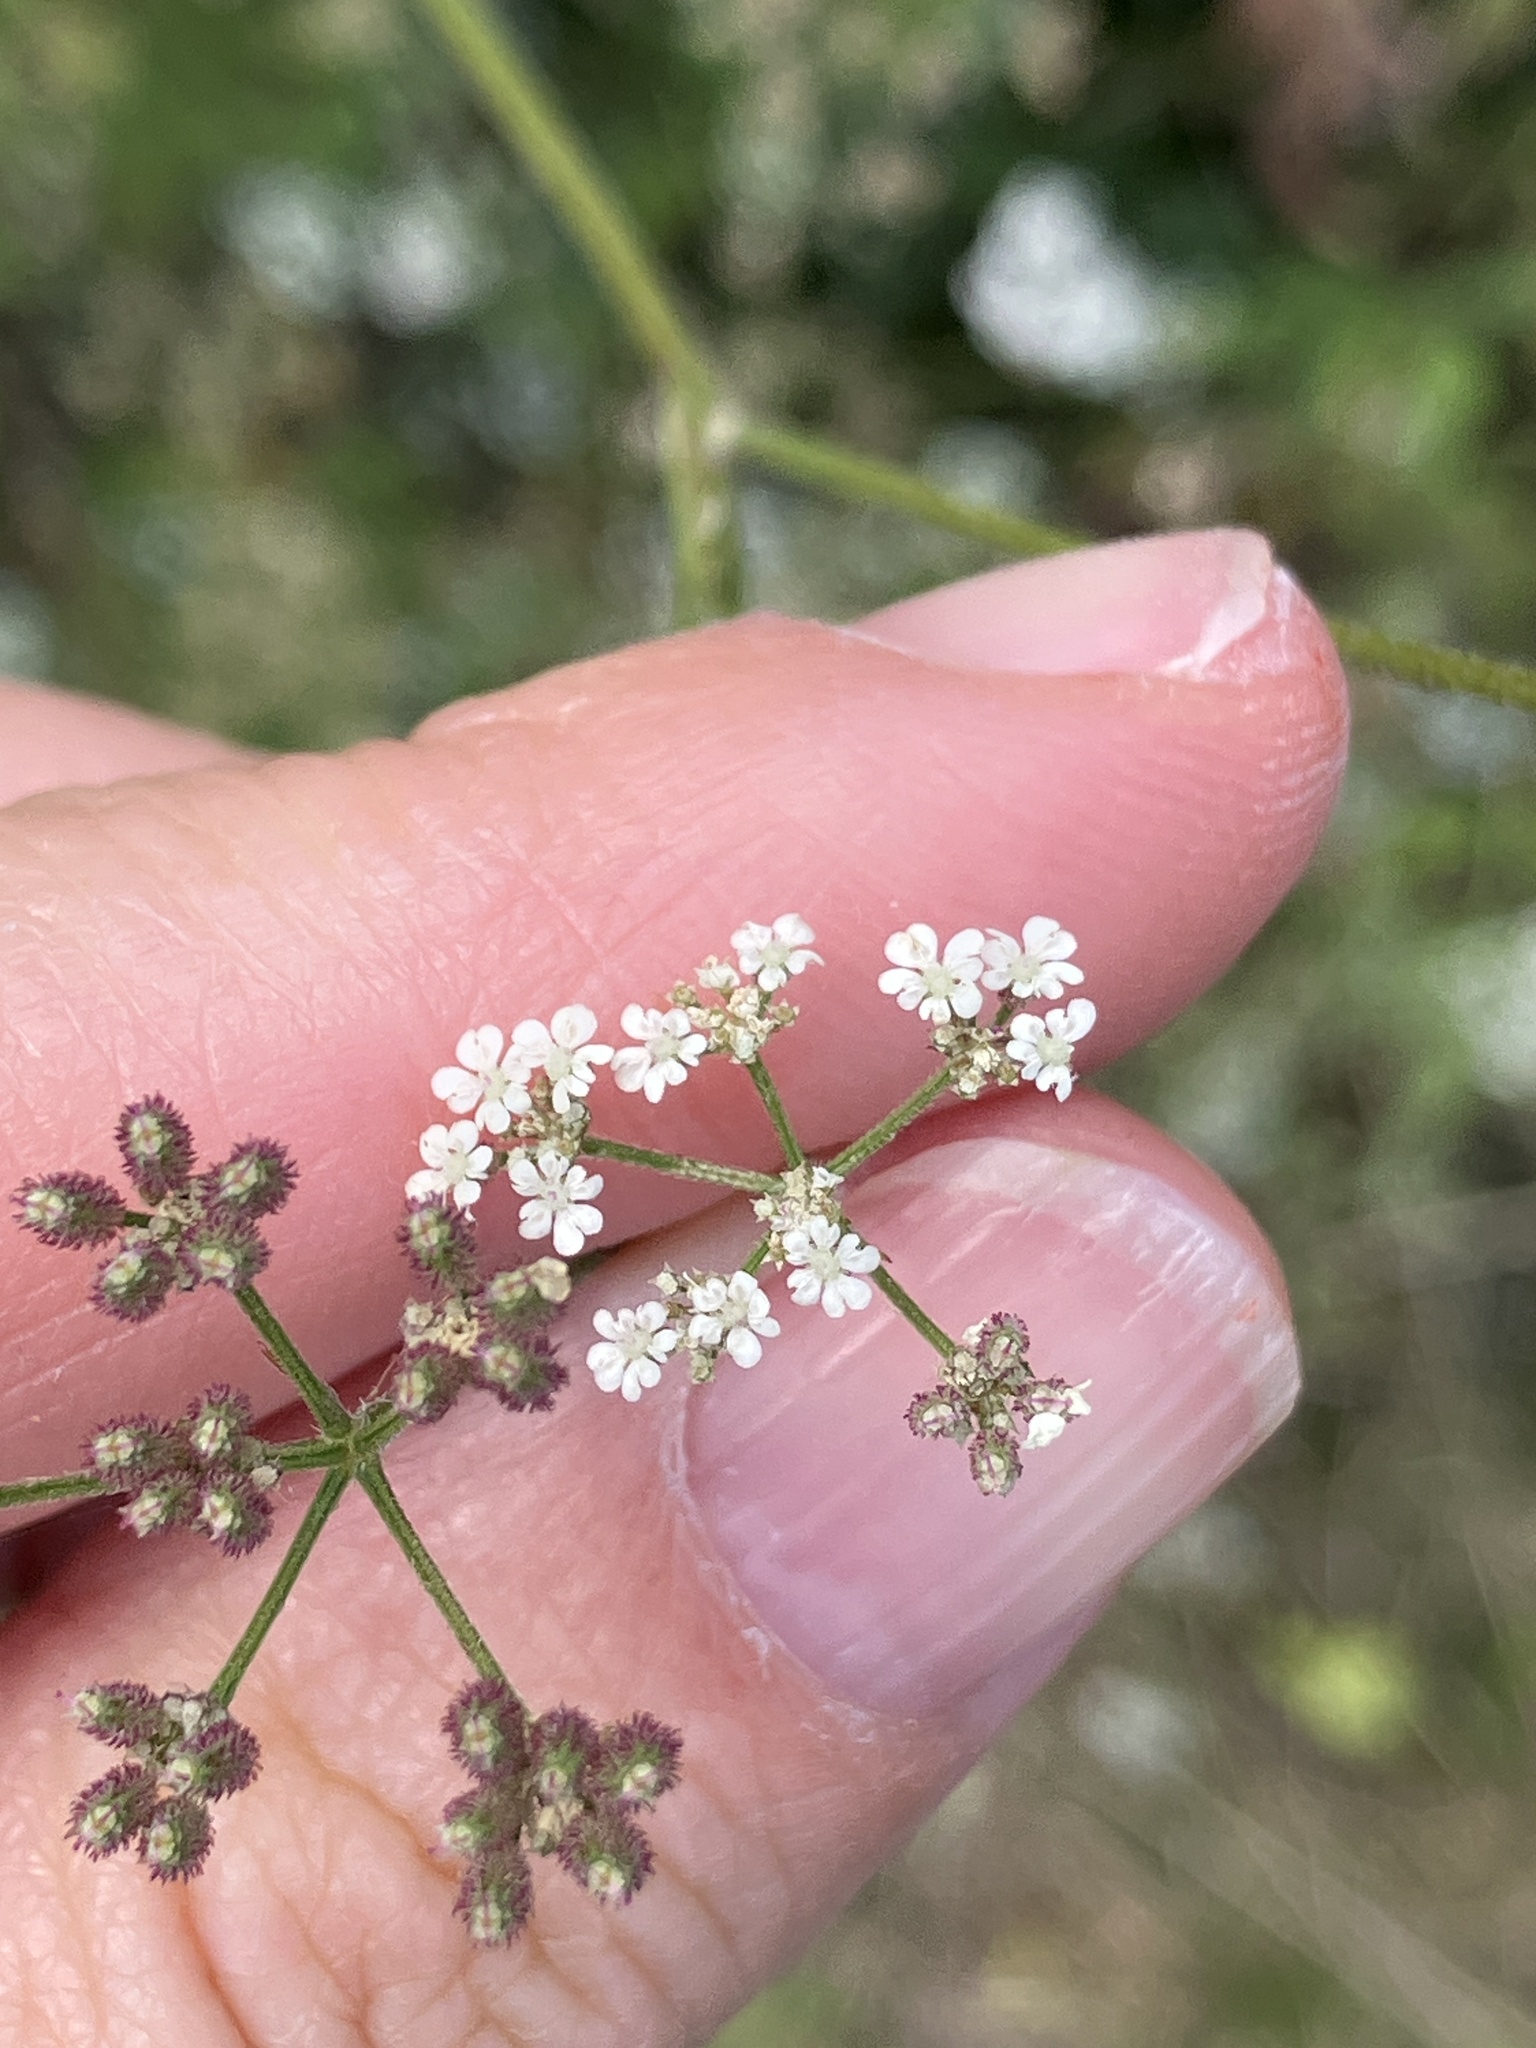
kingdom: Plantae
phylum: Tracheophyta
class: Magnoliopsida
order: Apiales
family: Apiaceae
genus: Torilis
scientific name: Torilis japonica
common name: Upright hedge-parsley
